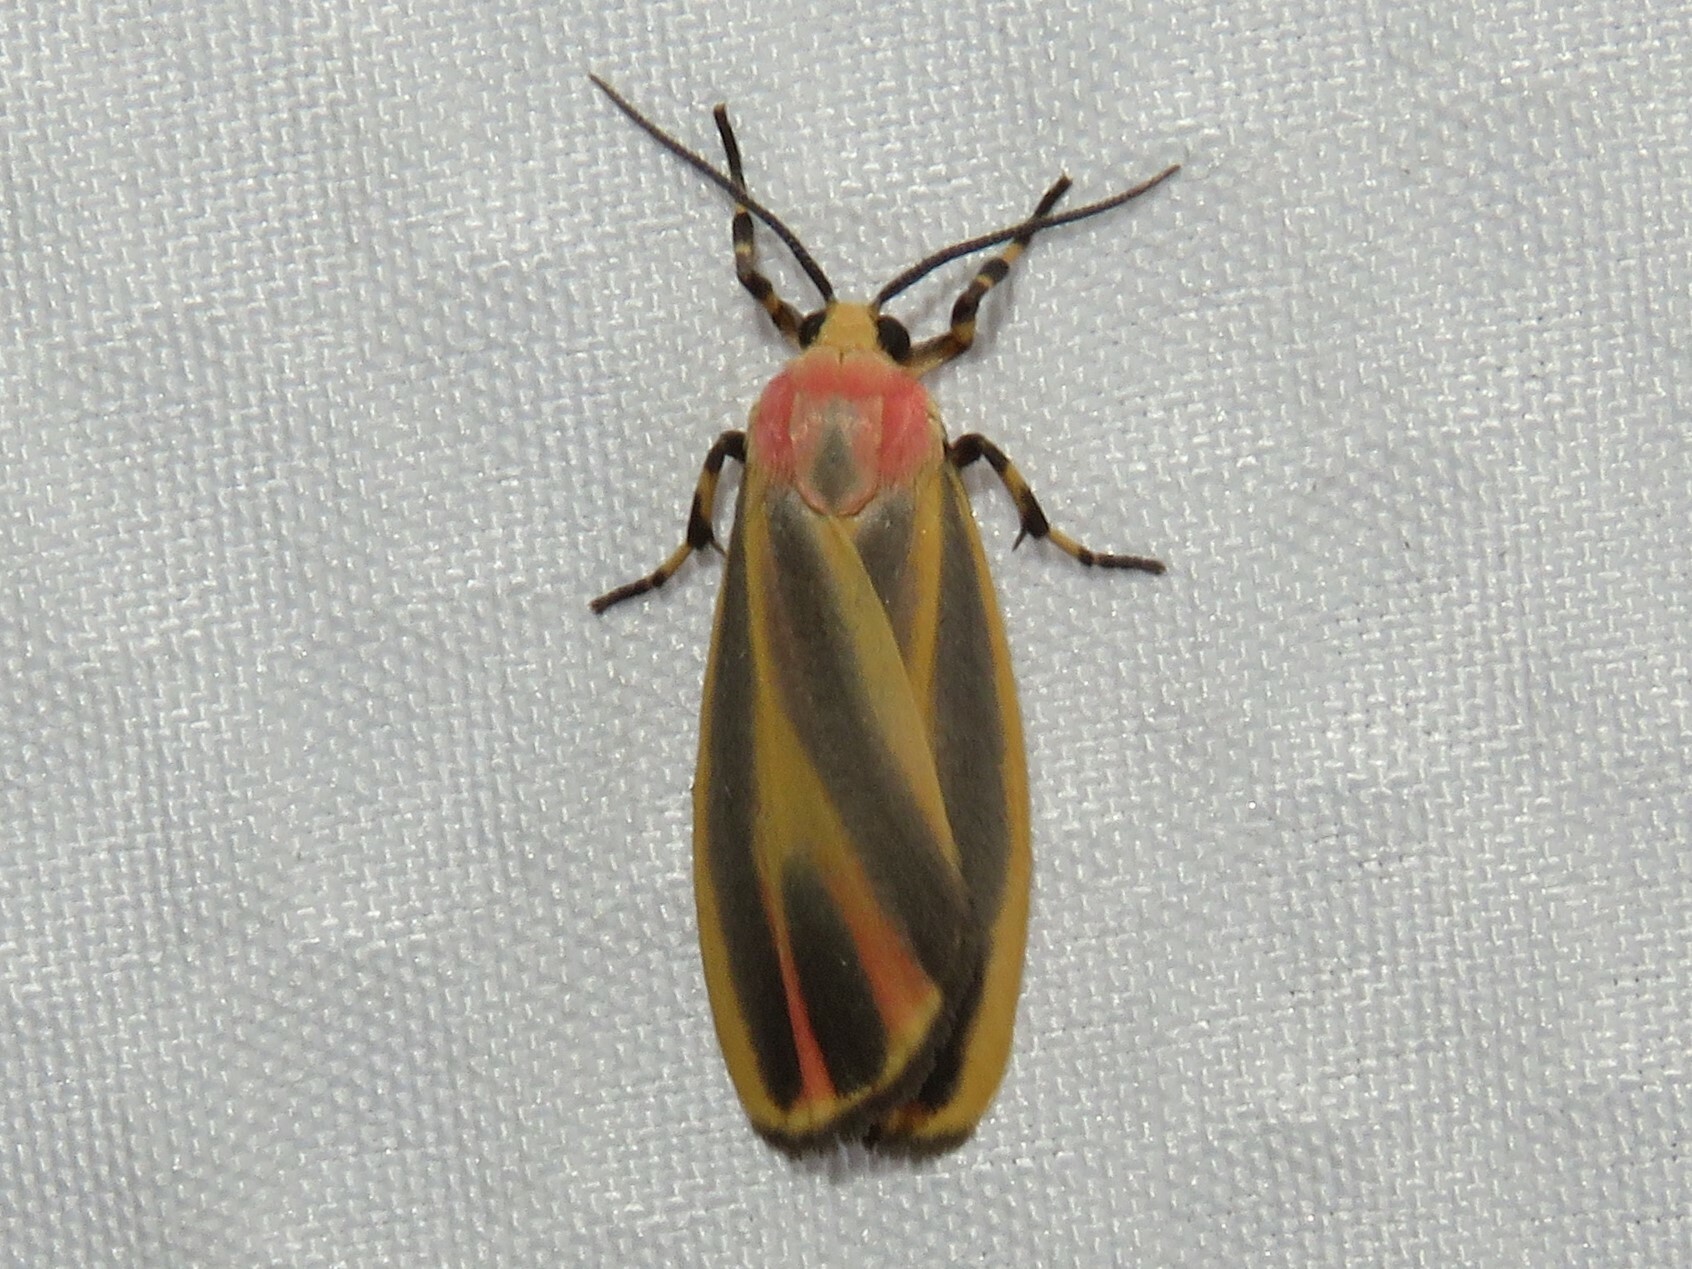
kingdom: Animalia
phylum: Arthropoda
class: Insecta
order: Lepidoptera
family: Erebidae
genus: Hypoprepia
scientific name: Hypoprepia fucosa
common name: Painted lichen moth
